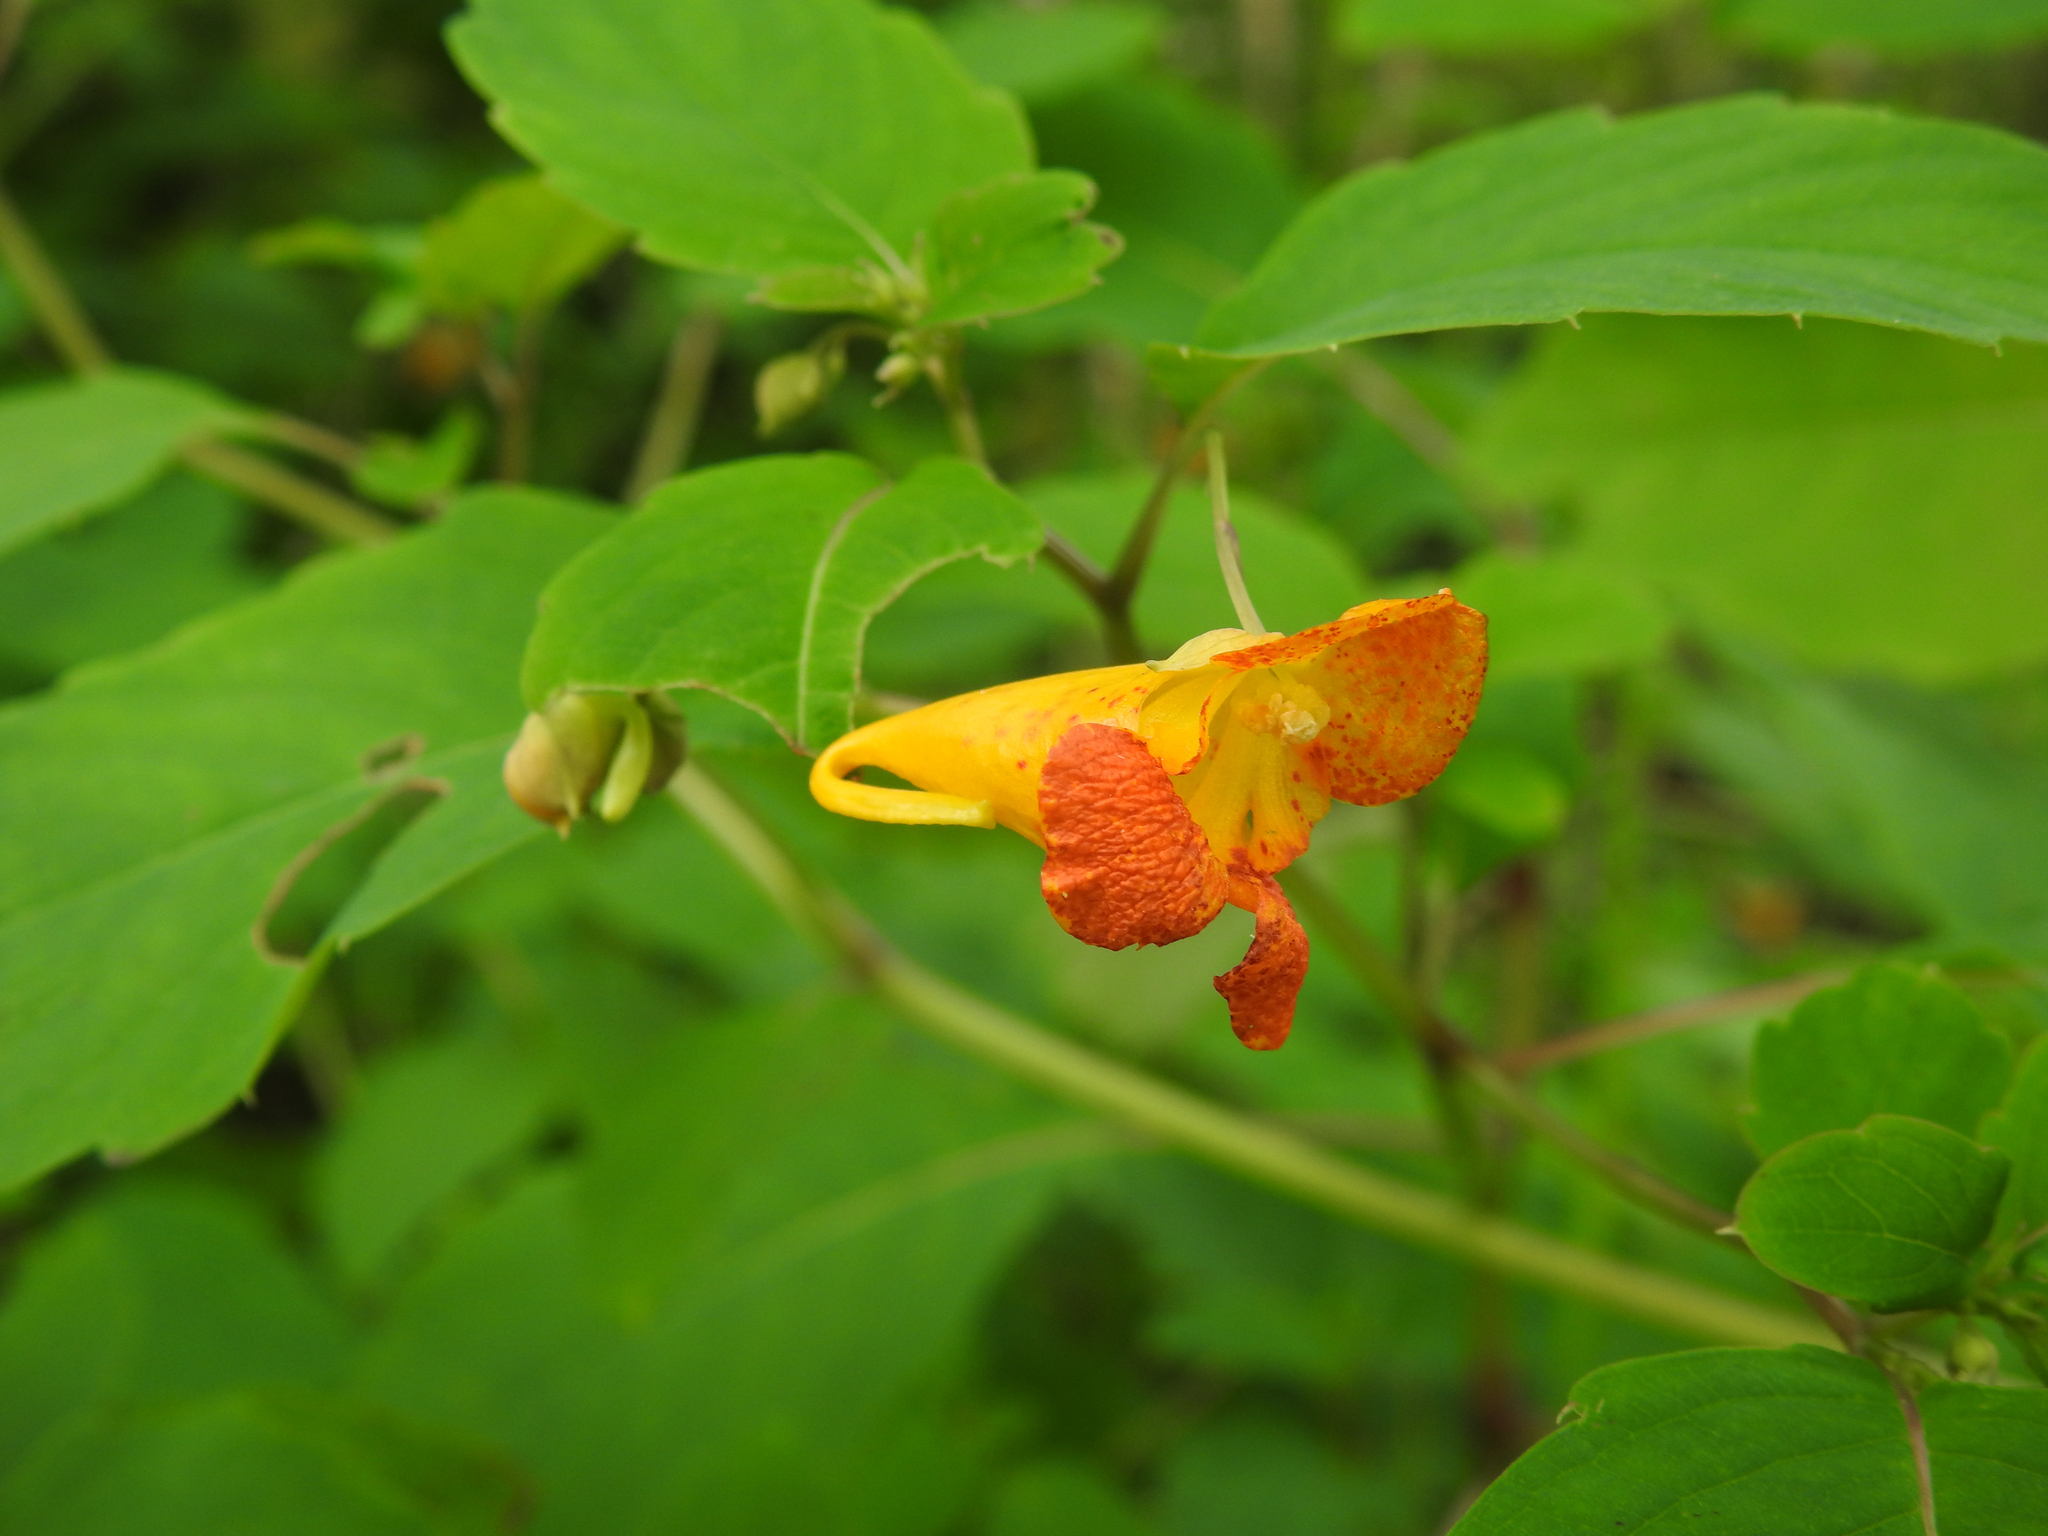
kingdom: Plantae
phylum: Tracheophyta
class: Magnoliopsida
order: Ericales
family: Balsaminaceae
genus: Impatiens
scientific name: Impatiens capensis
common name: Orange balsam
